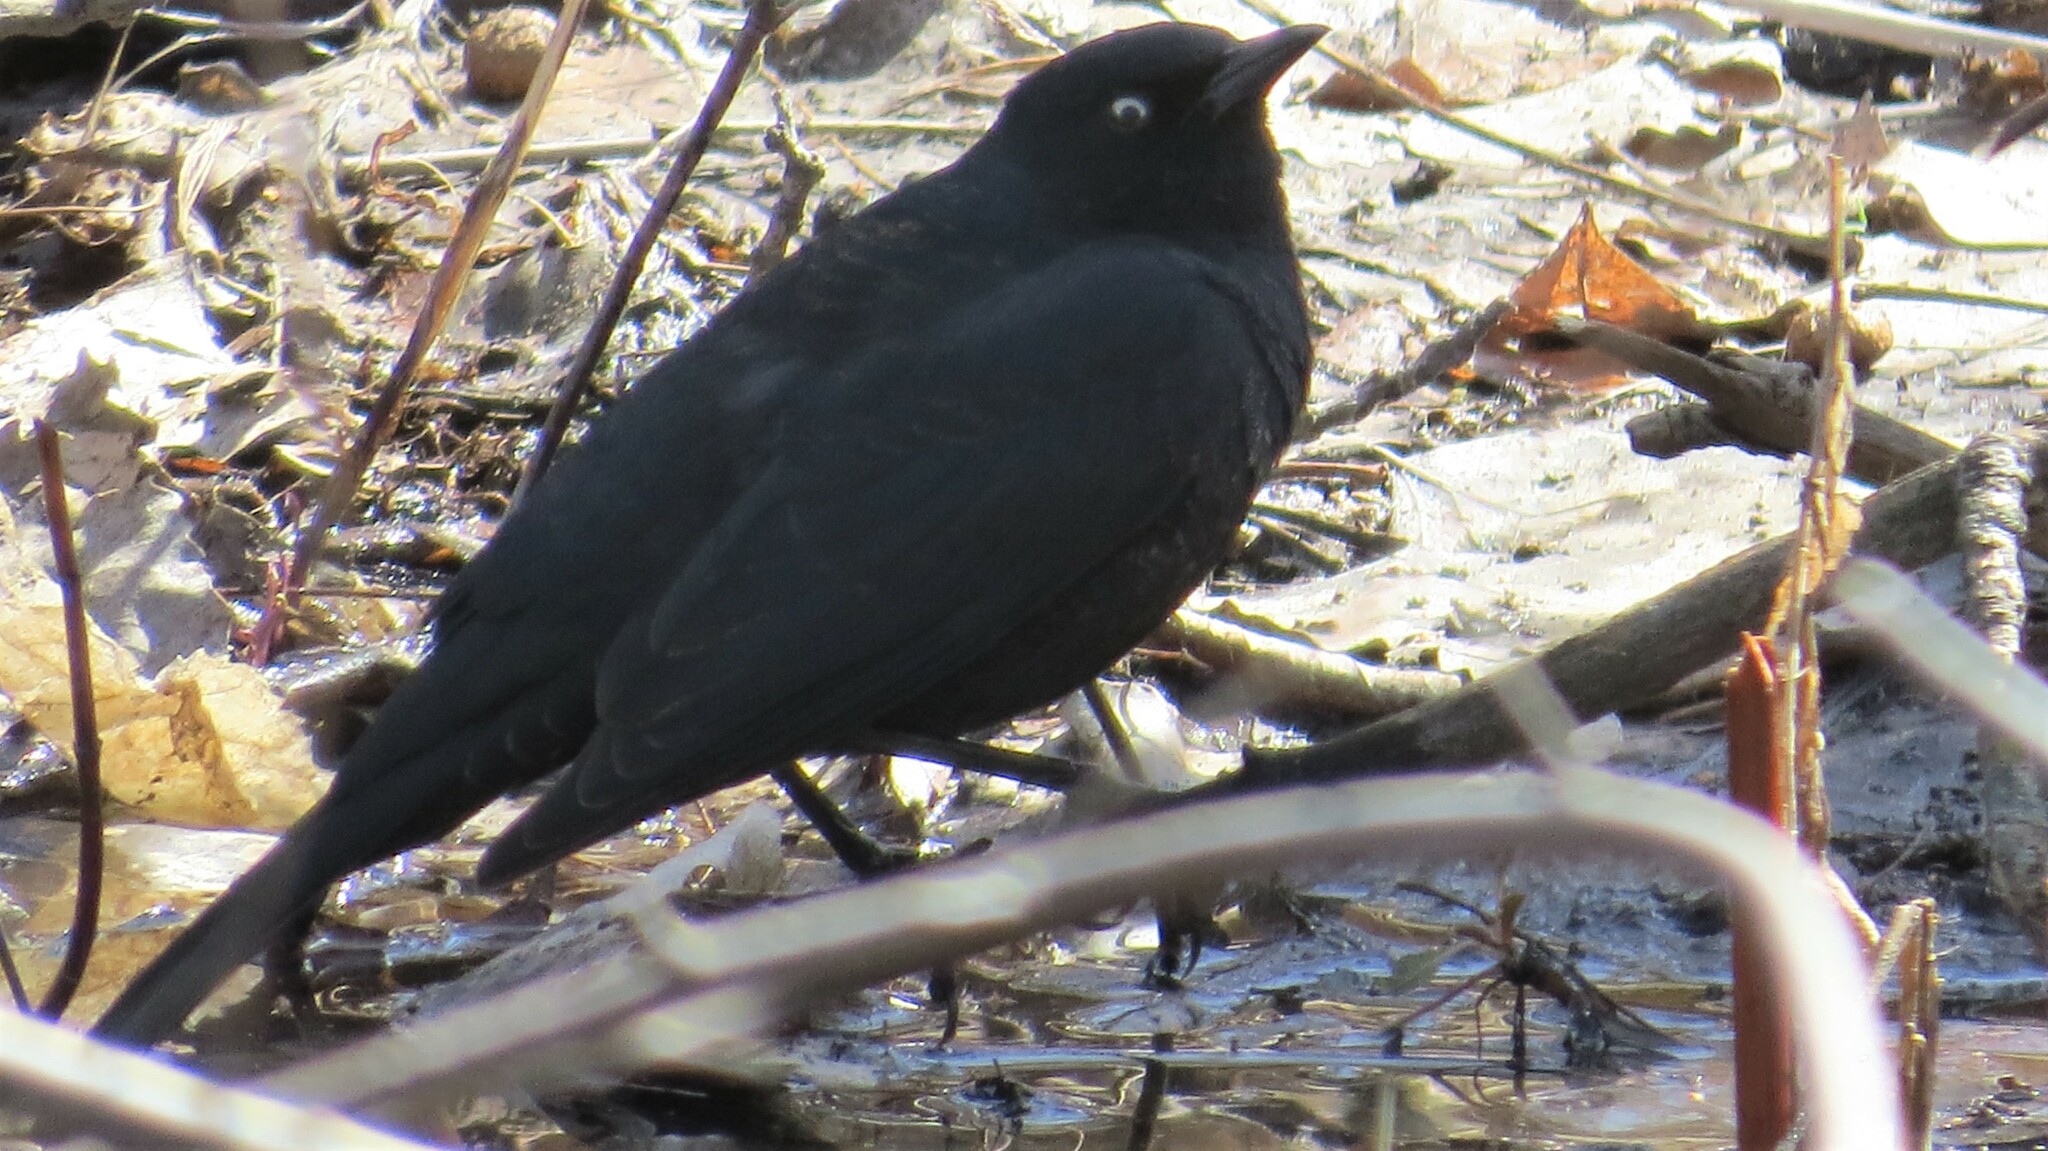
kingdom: Animalia
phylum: Chordata
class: Aves
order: Passeriformes
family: Icteridae
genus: Euphagus
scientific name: Euphagus carolinus
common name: Rusty blackbird
